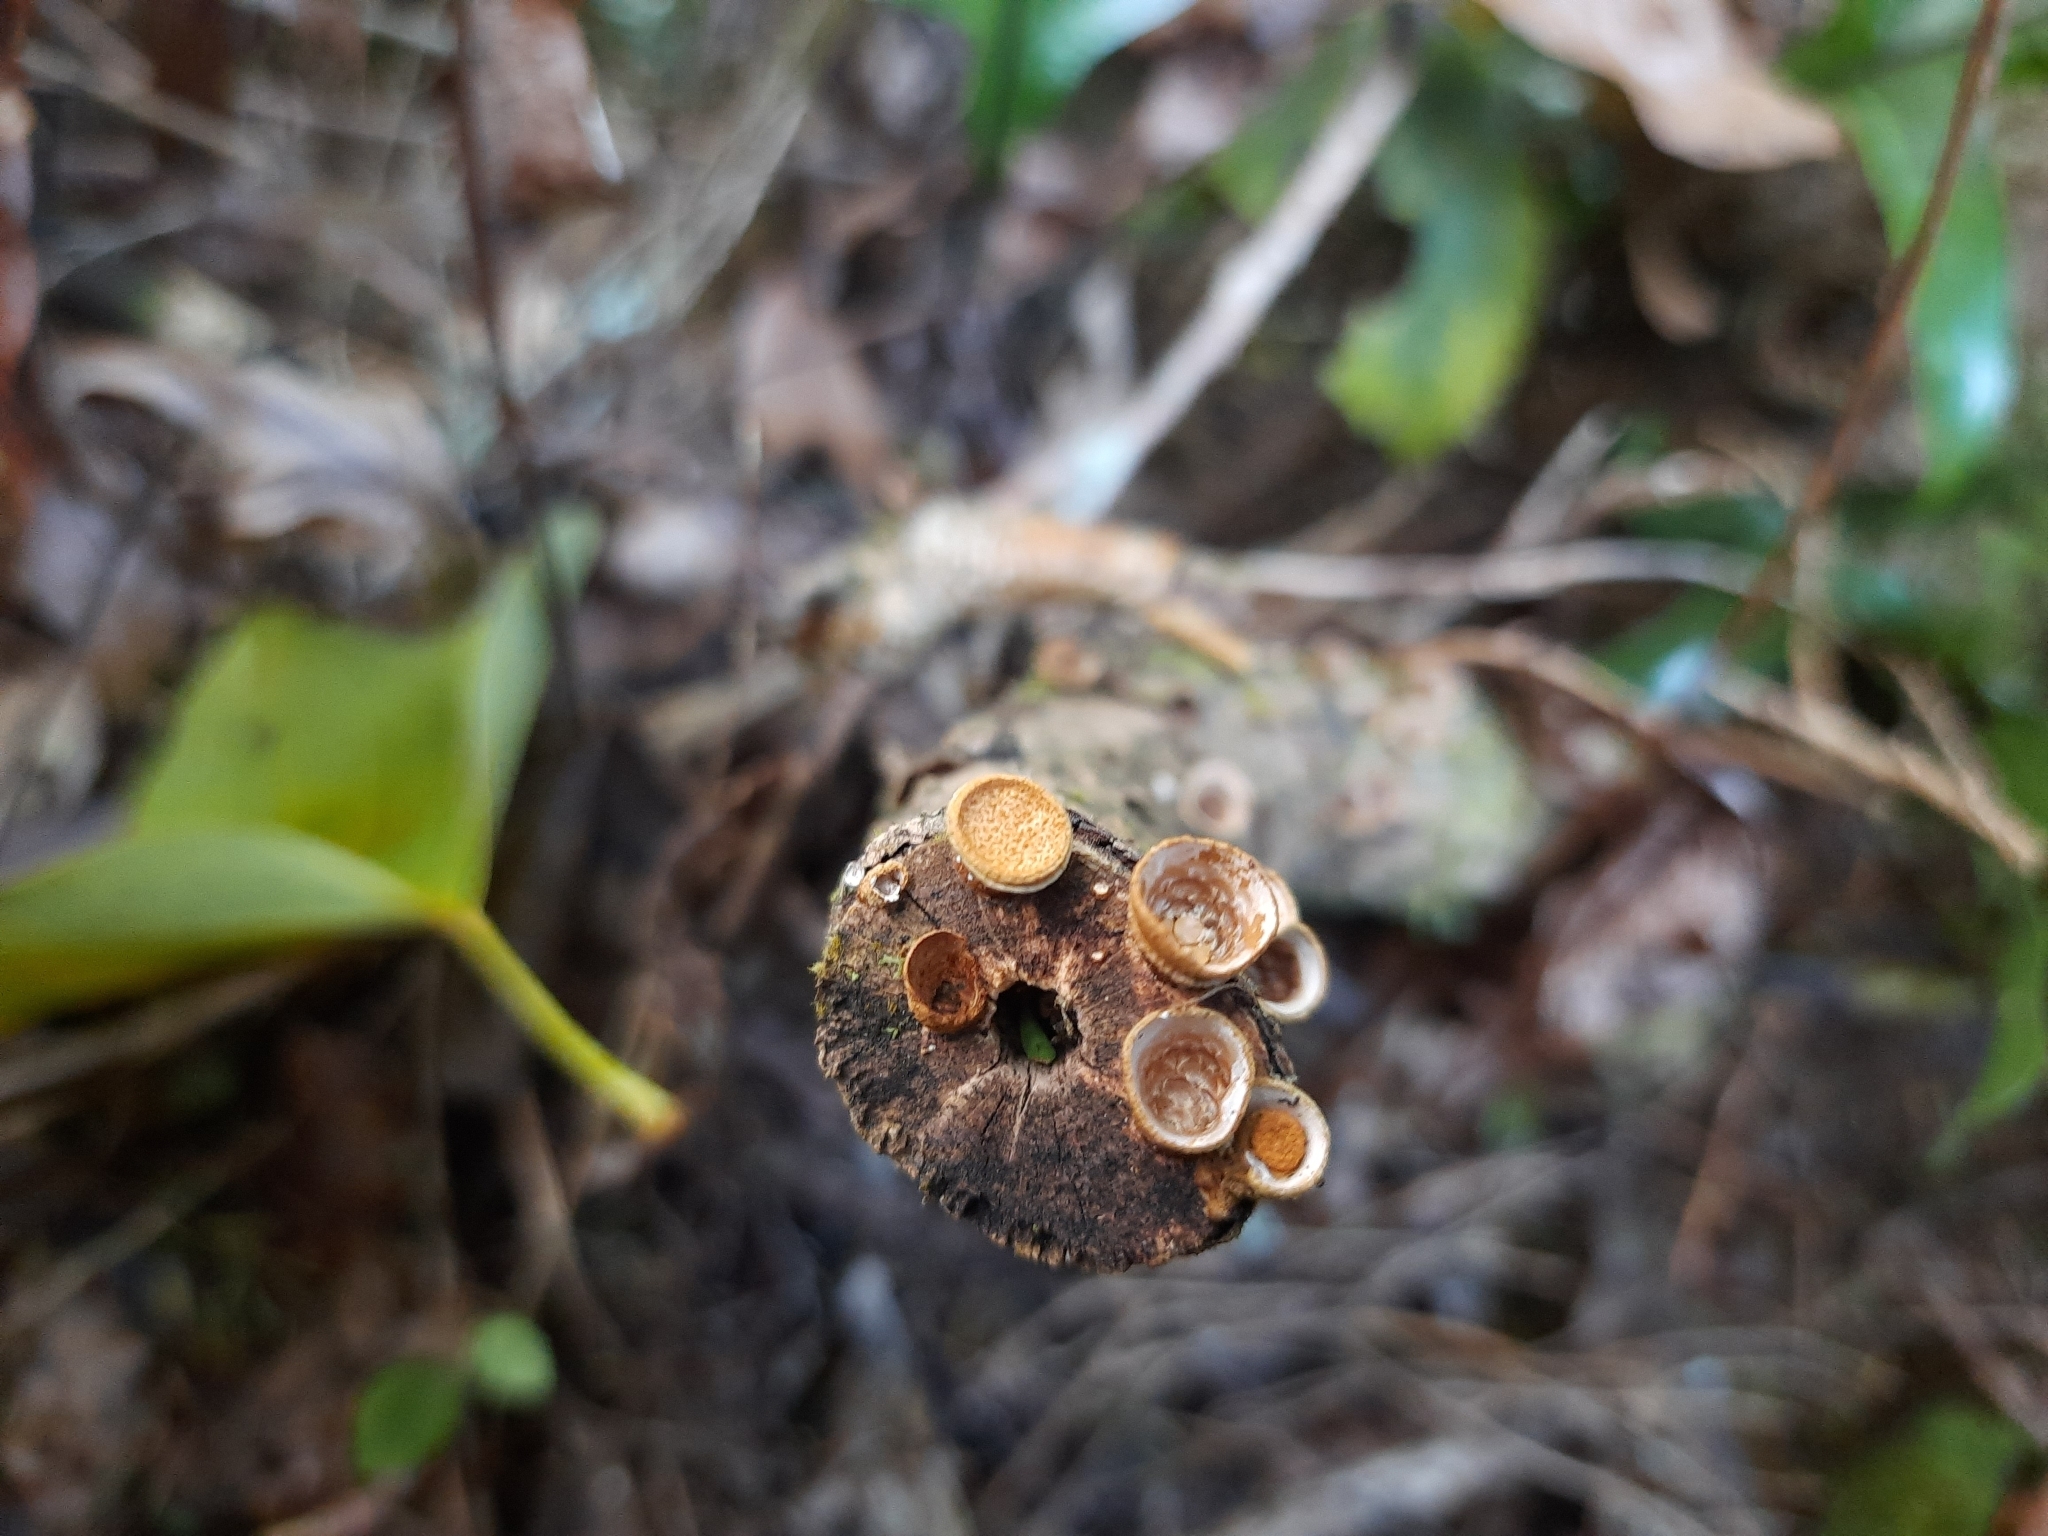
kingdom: Fungi
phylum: Basidiomycota
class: Agaricomycetes
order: Agaricales
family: Nidulariaceae
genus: Crucibulum
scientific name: Crucibulum simile
